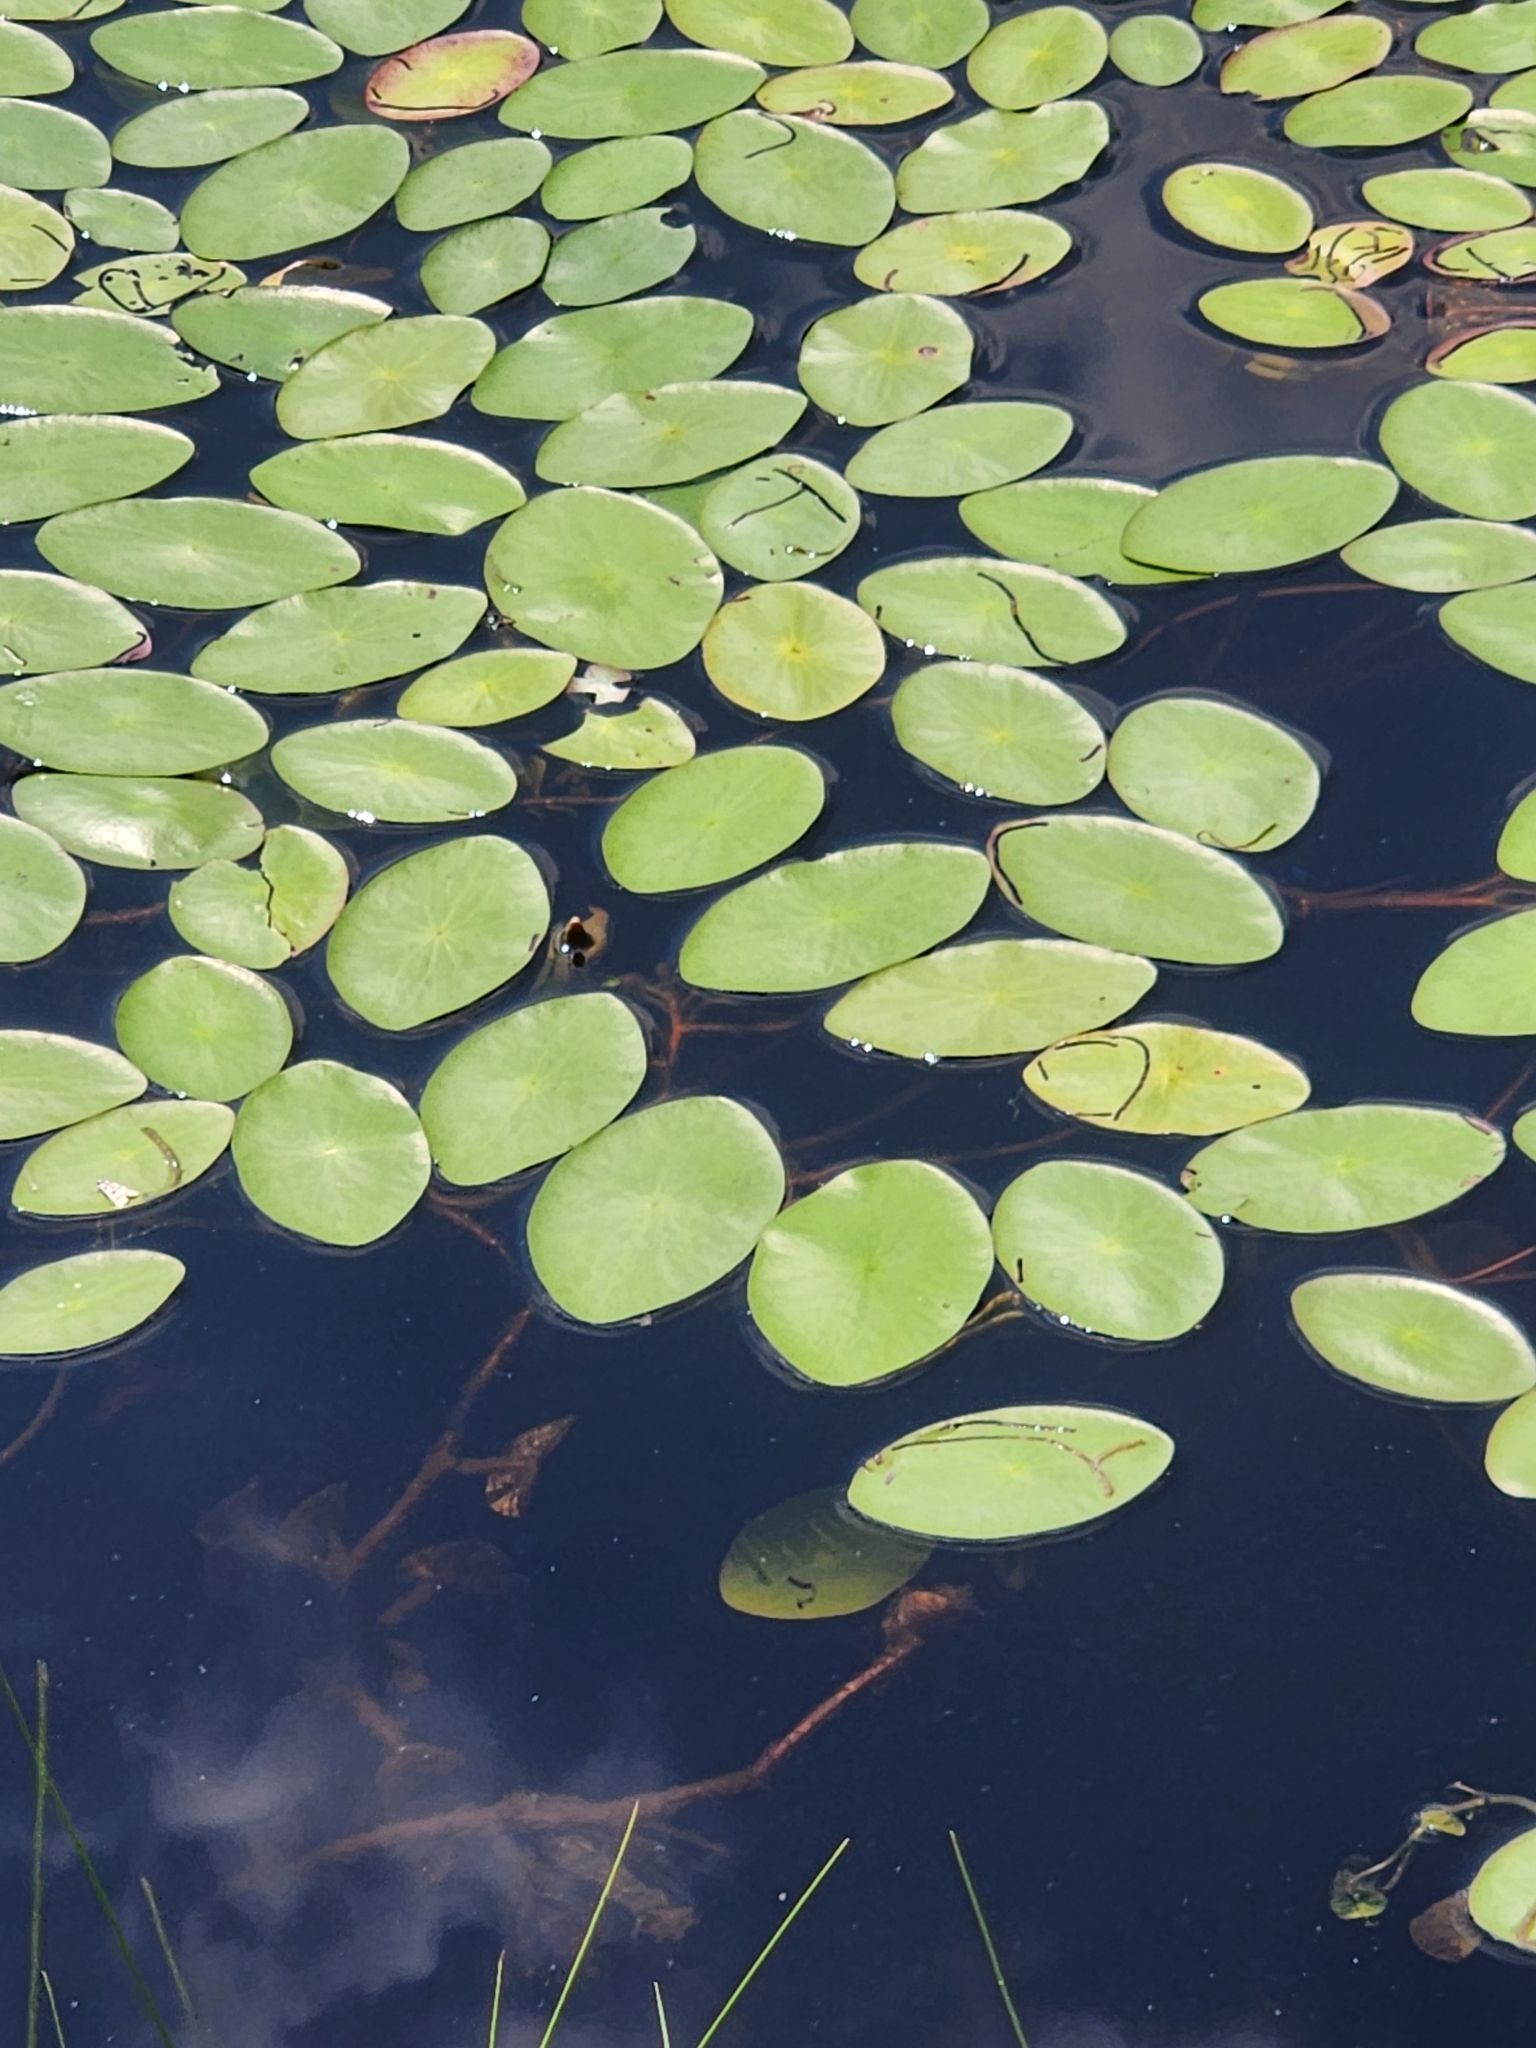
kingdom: Plantae
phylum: Tracheophyta
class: Magnoliopsida
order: Nymphaeales
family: Cabombaceae
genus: Brasenia
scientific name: Brasenia schreberi
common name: Water-shield
